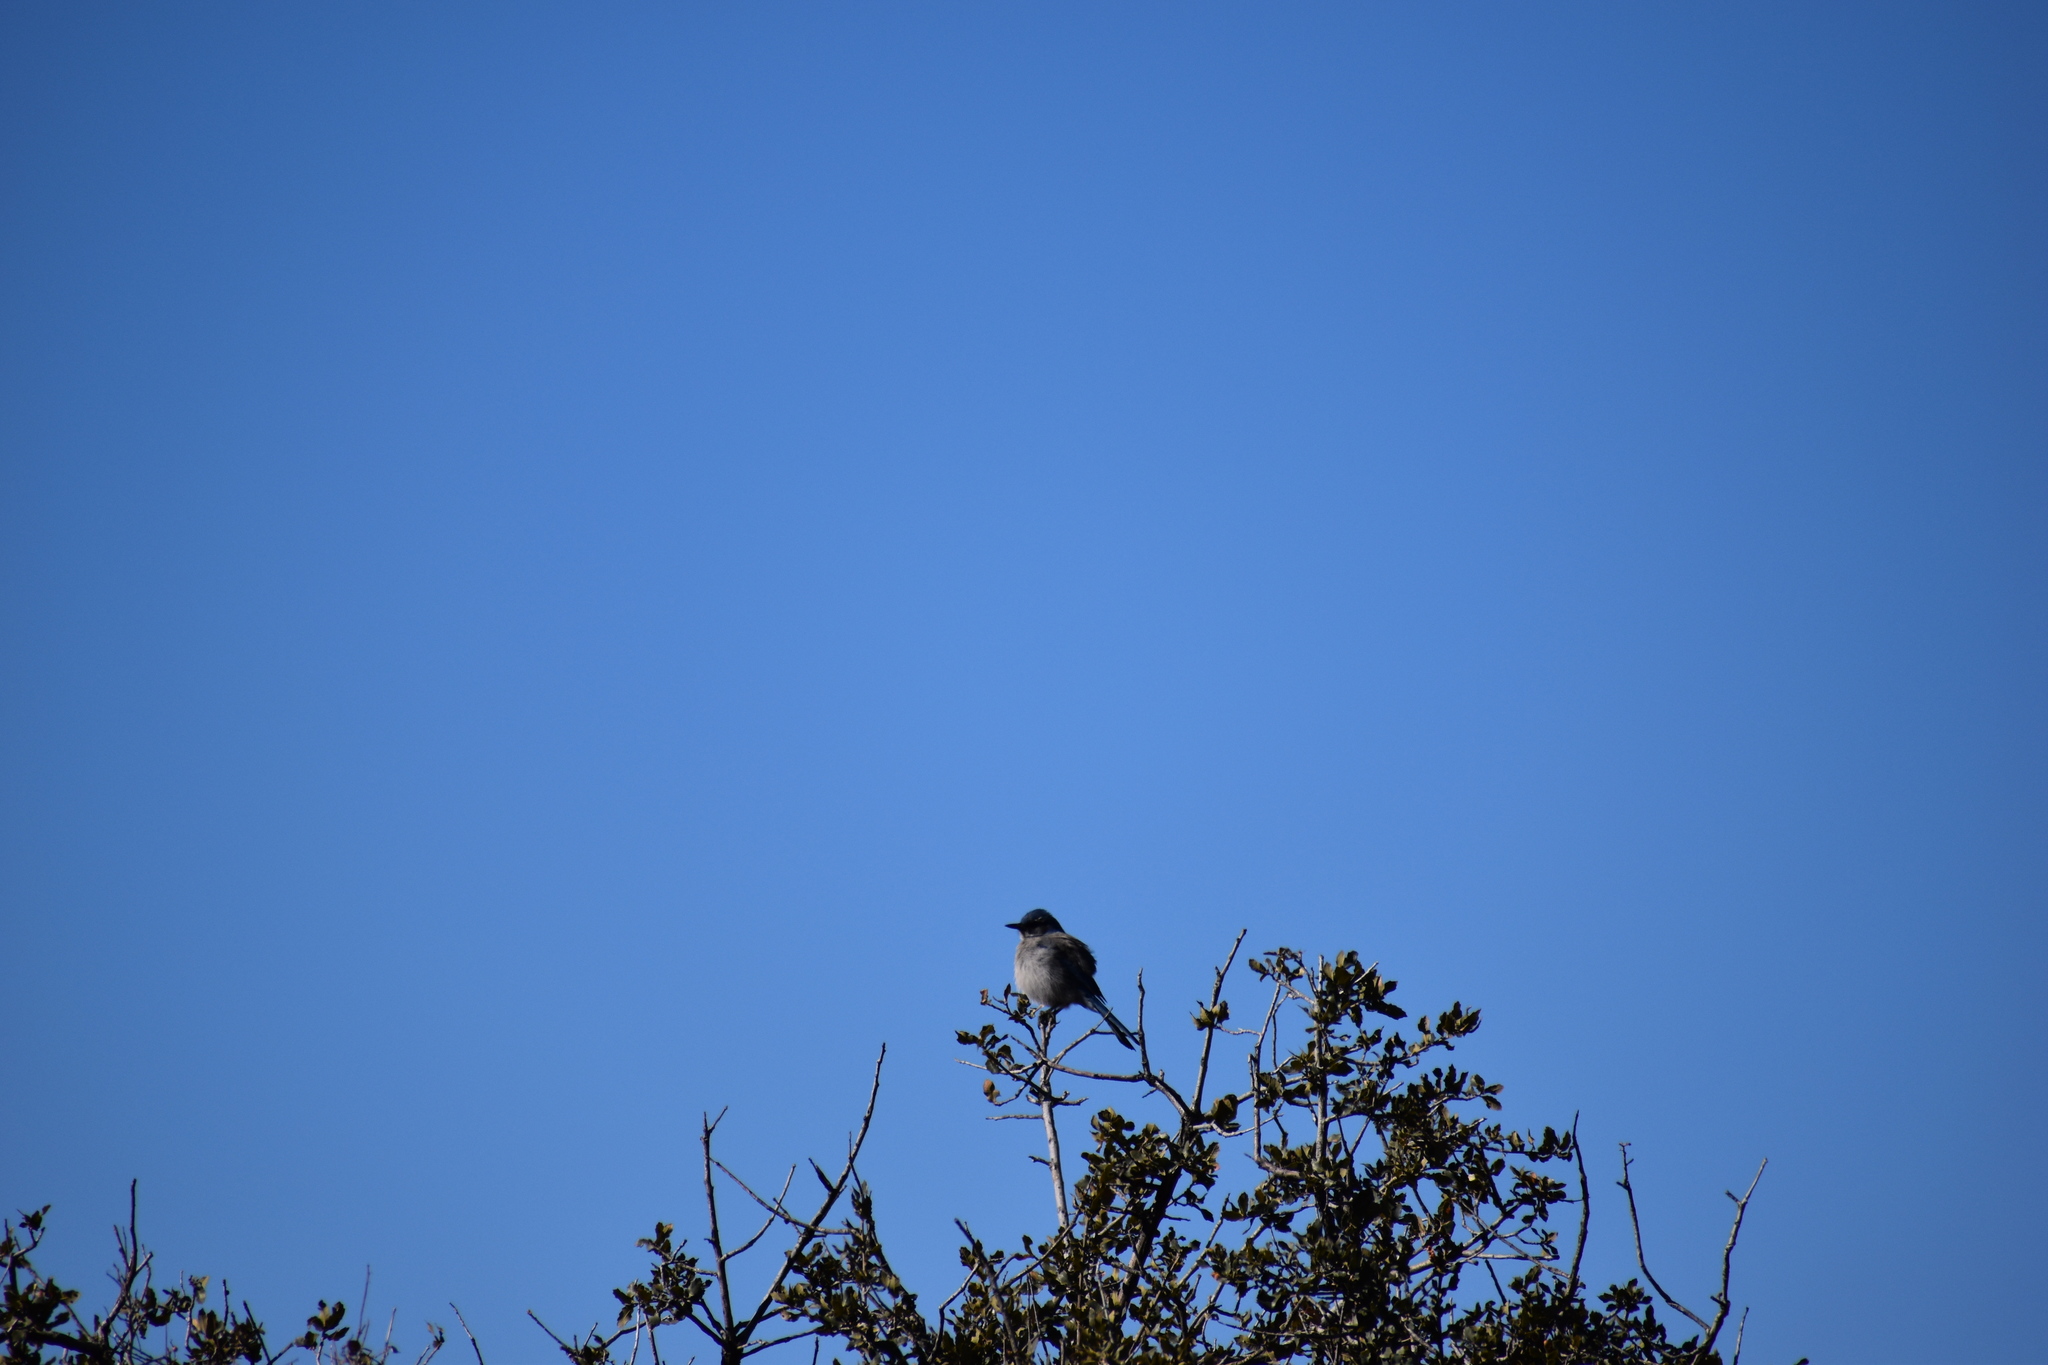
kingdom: Animalia
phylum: Chordata
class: Aves
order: Passeriformes
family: Corvidae
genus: Aphelocoma
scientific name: Aphelocoma woodhouseii
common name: Woodhouse's scrub-jay
